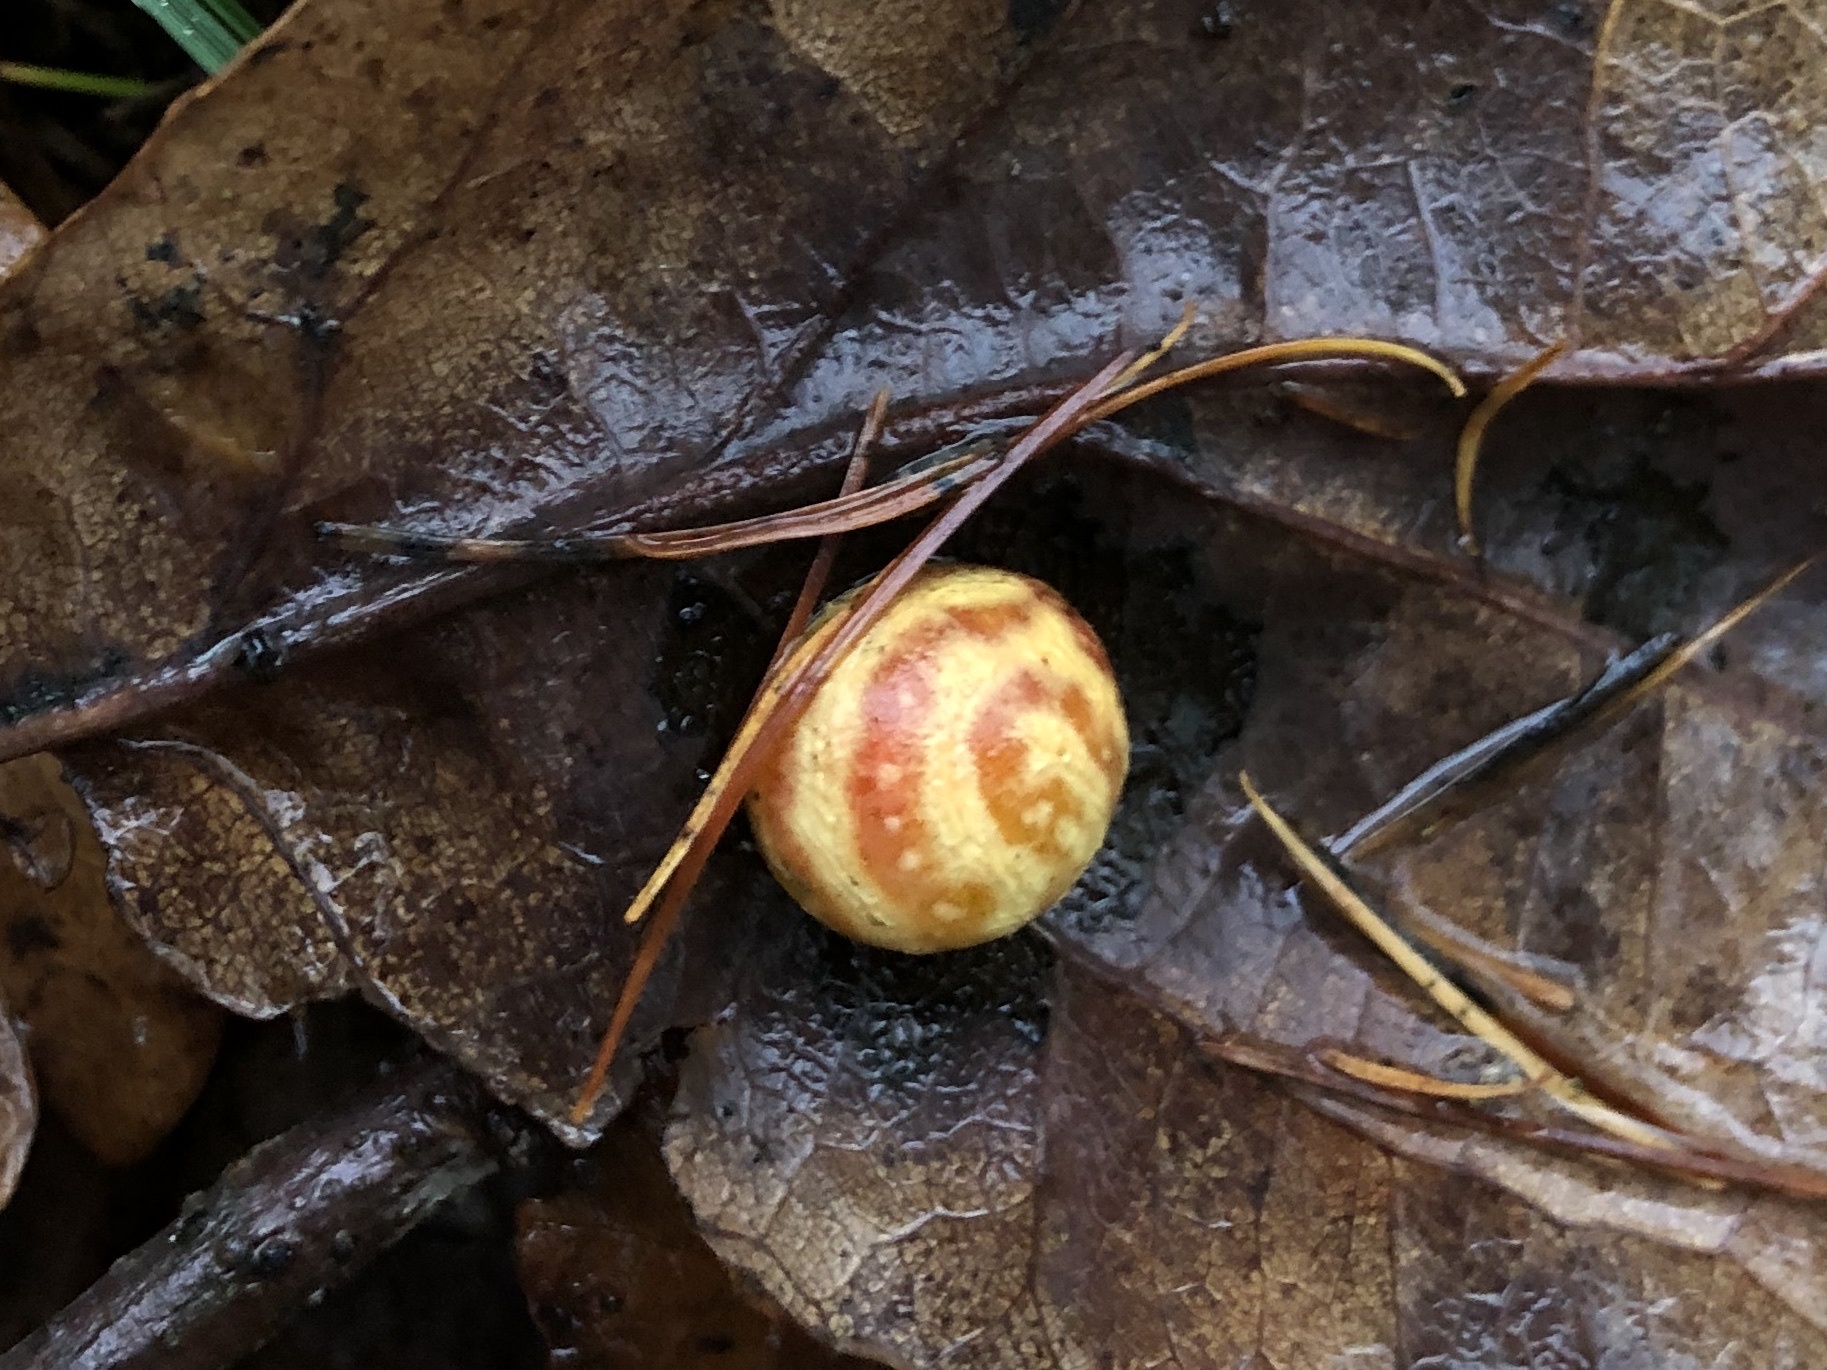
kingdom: Animalia
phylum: Arthropoda
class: Insecta
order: Hymenoptera
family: Cynipidae
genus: Cynips
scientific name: Cynips longiventris
